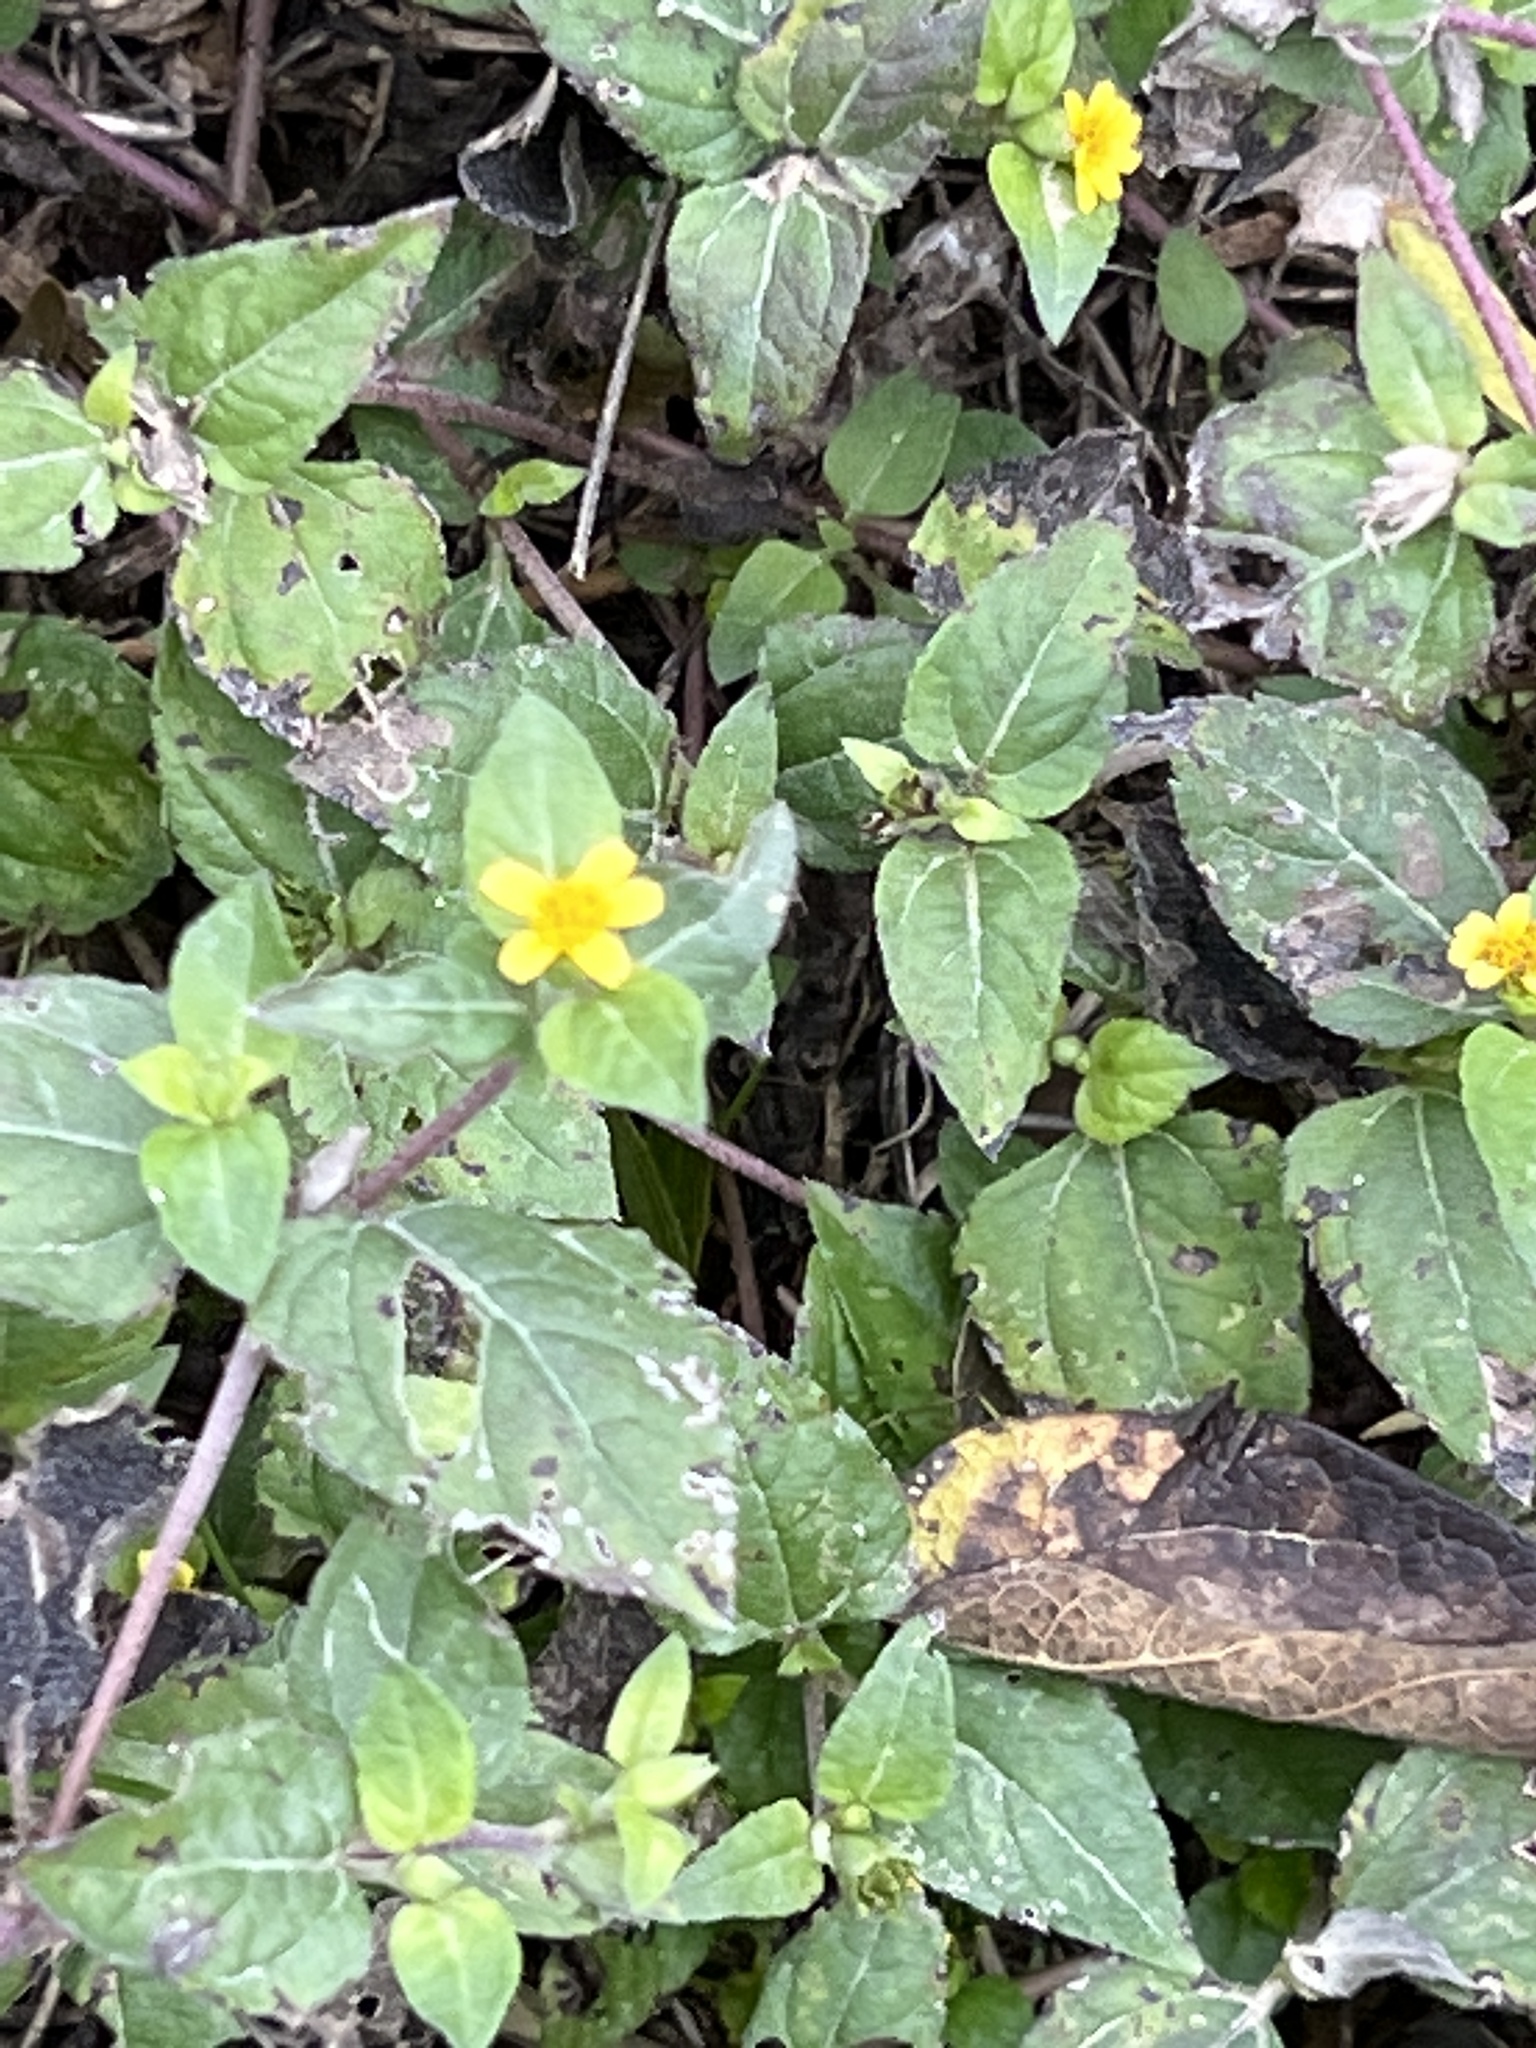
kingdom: Plantae
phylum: Tracheophyta
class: Magnoliopsida
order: Asterales
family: Asteraceae
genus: Calyptocarpus
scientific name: Calyptocarpus vialis
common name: Straggler daisy
